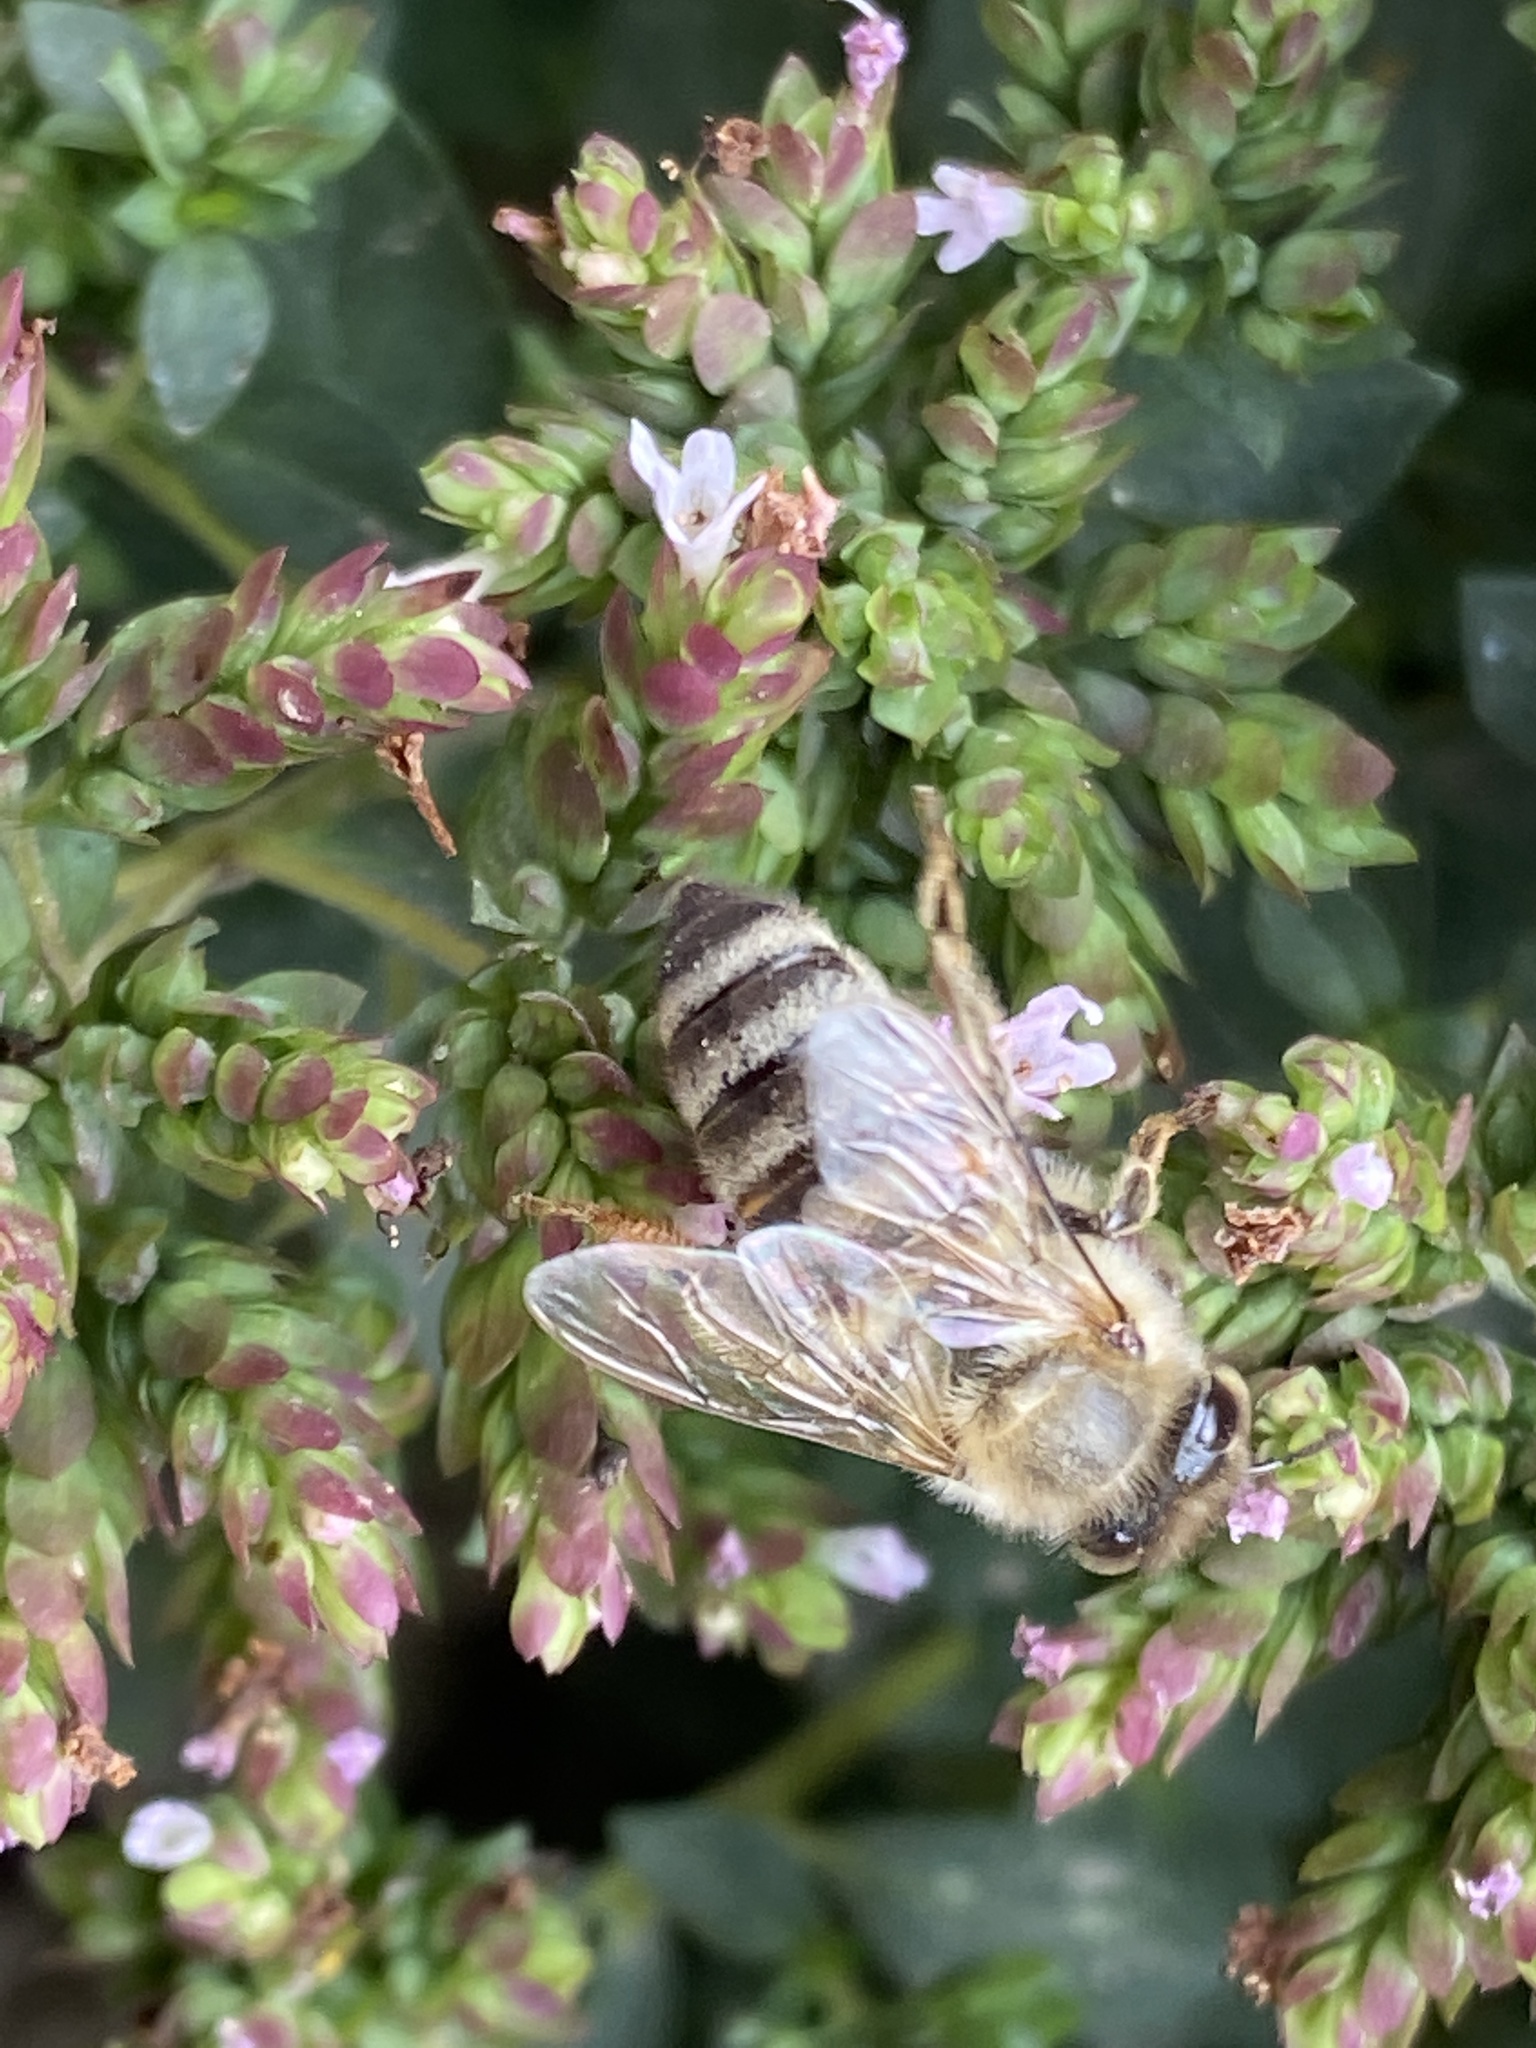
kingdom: Animalia
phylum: Arthropoda
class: Insecta
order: Hymenoptera
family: Apidae
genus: Apis
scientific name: Apis mellifera
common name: Honey bee
